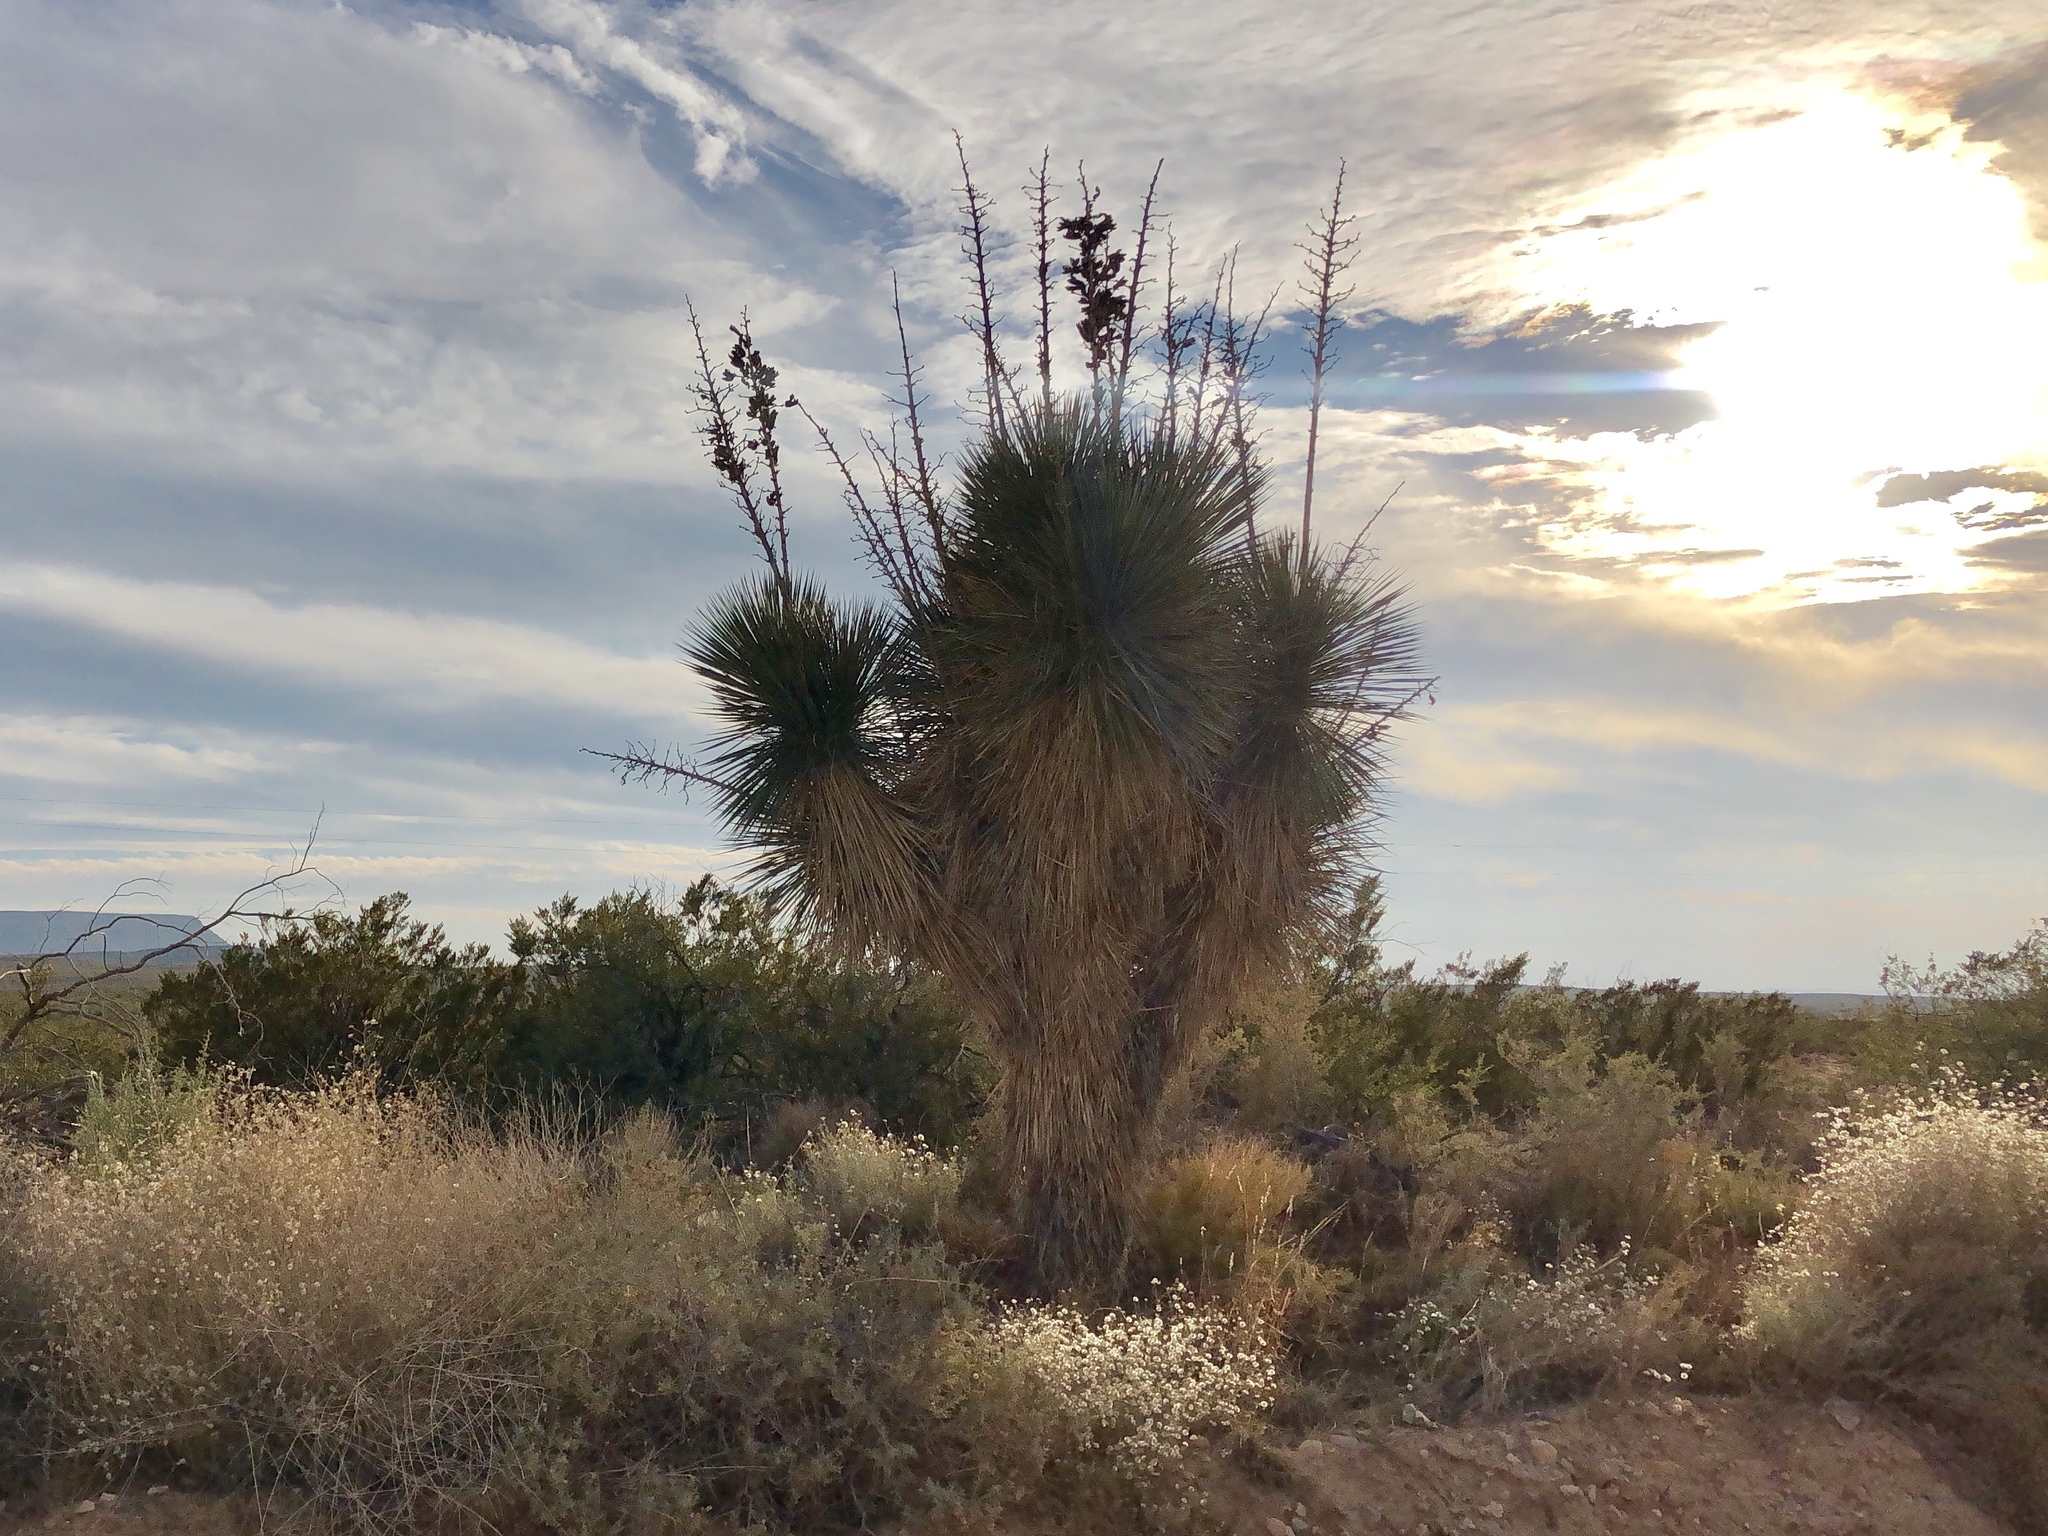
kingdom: Plantae
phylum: Tracheophyta
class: Liliopsida
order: Asparagales
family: Asparagaceae
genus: Yucca
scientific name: Yucca elata
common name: Palmella
